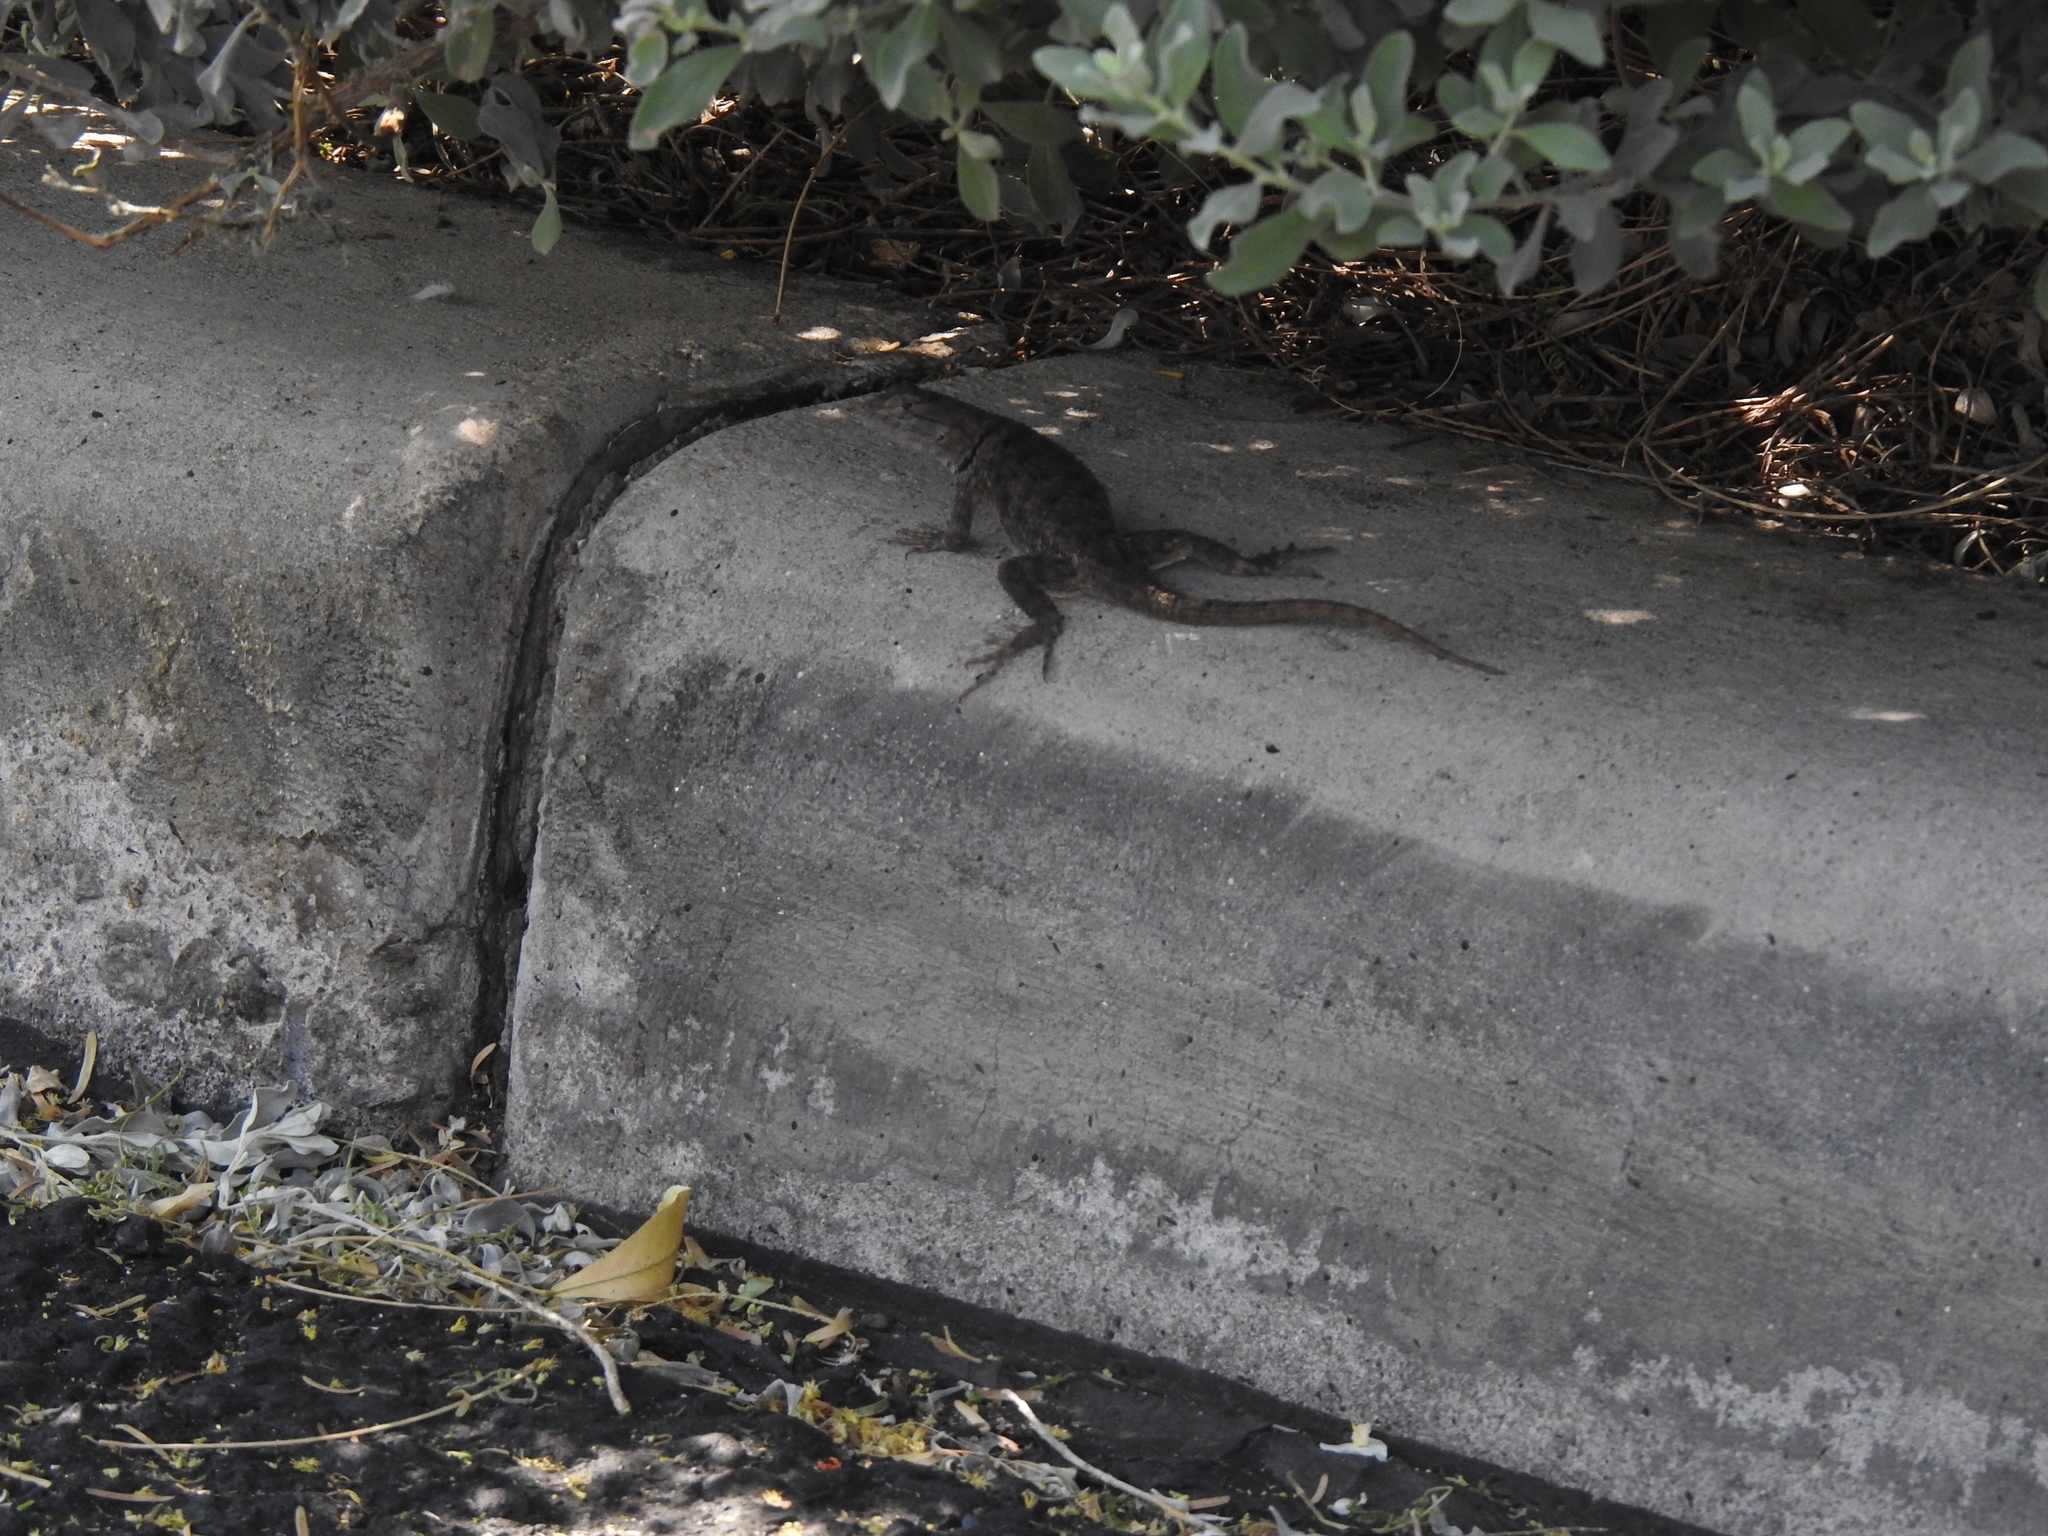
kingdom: Animalia
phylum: Chordata
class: Squamata
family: Phrynosomatidae
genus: Sceloporus
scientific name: Sceloporus magister
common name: Desert spiny lizard
